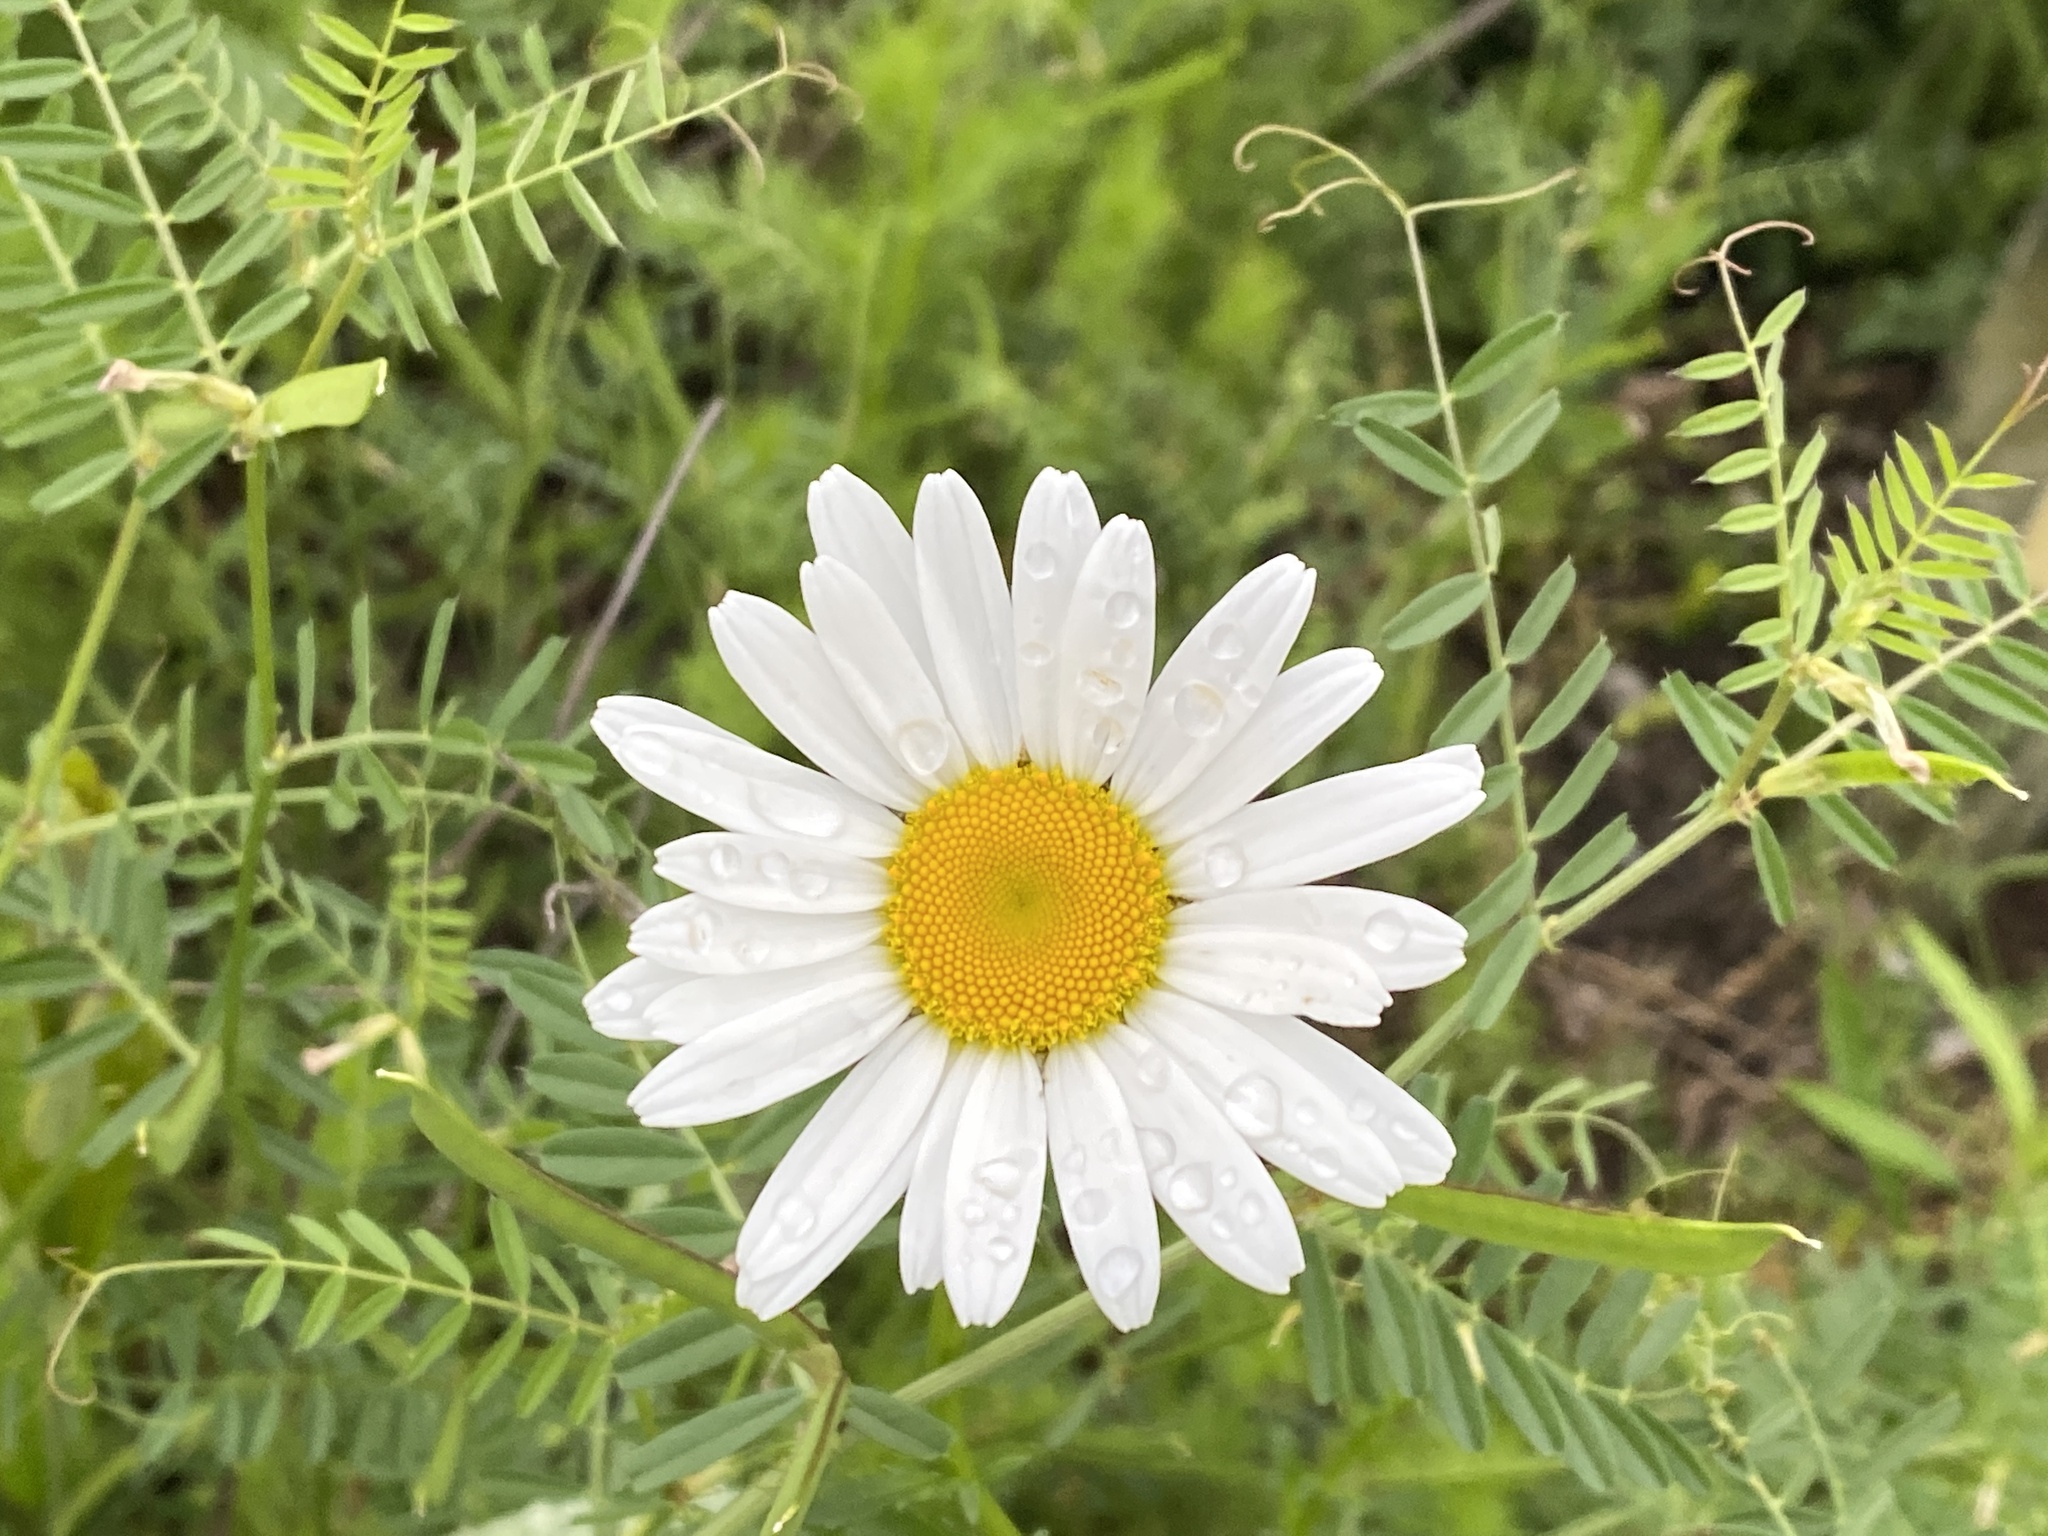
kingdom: Plantae
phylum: Tracheophyta
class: Magnoliopsida
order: Asterales
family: Asteraceae
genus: Leucanthemum
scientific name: Leucanthemum vulgare
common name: Oxeye daisy
